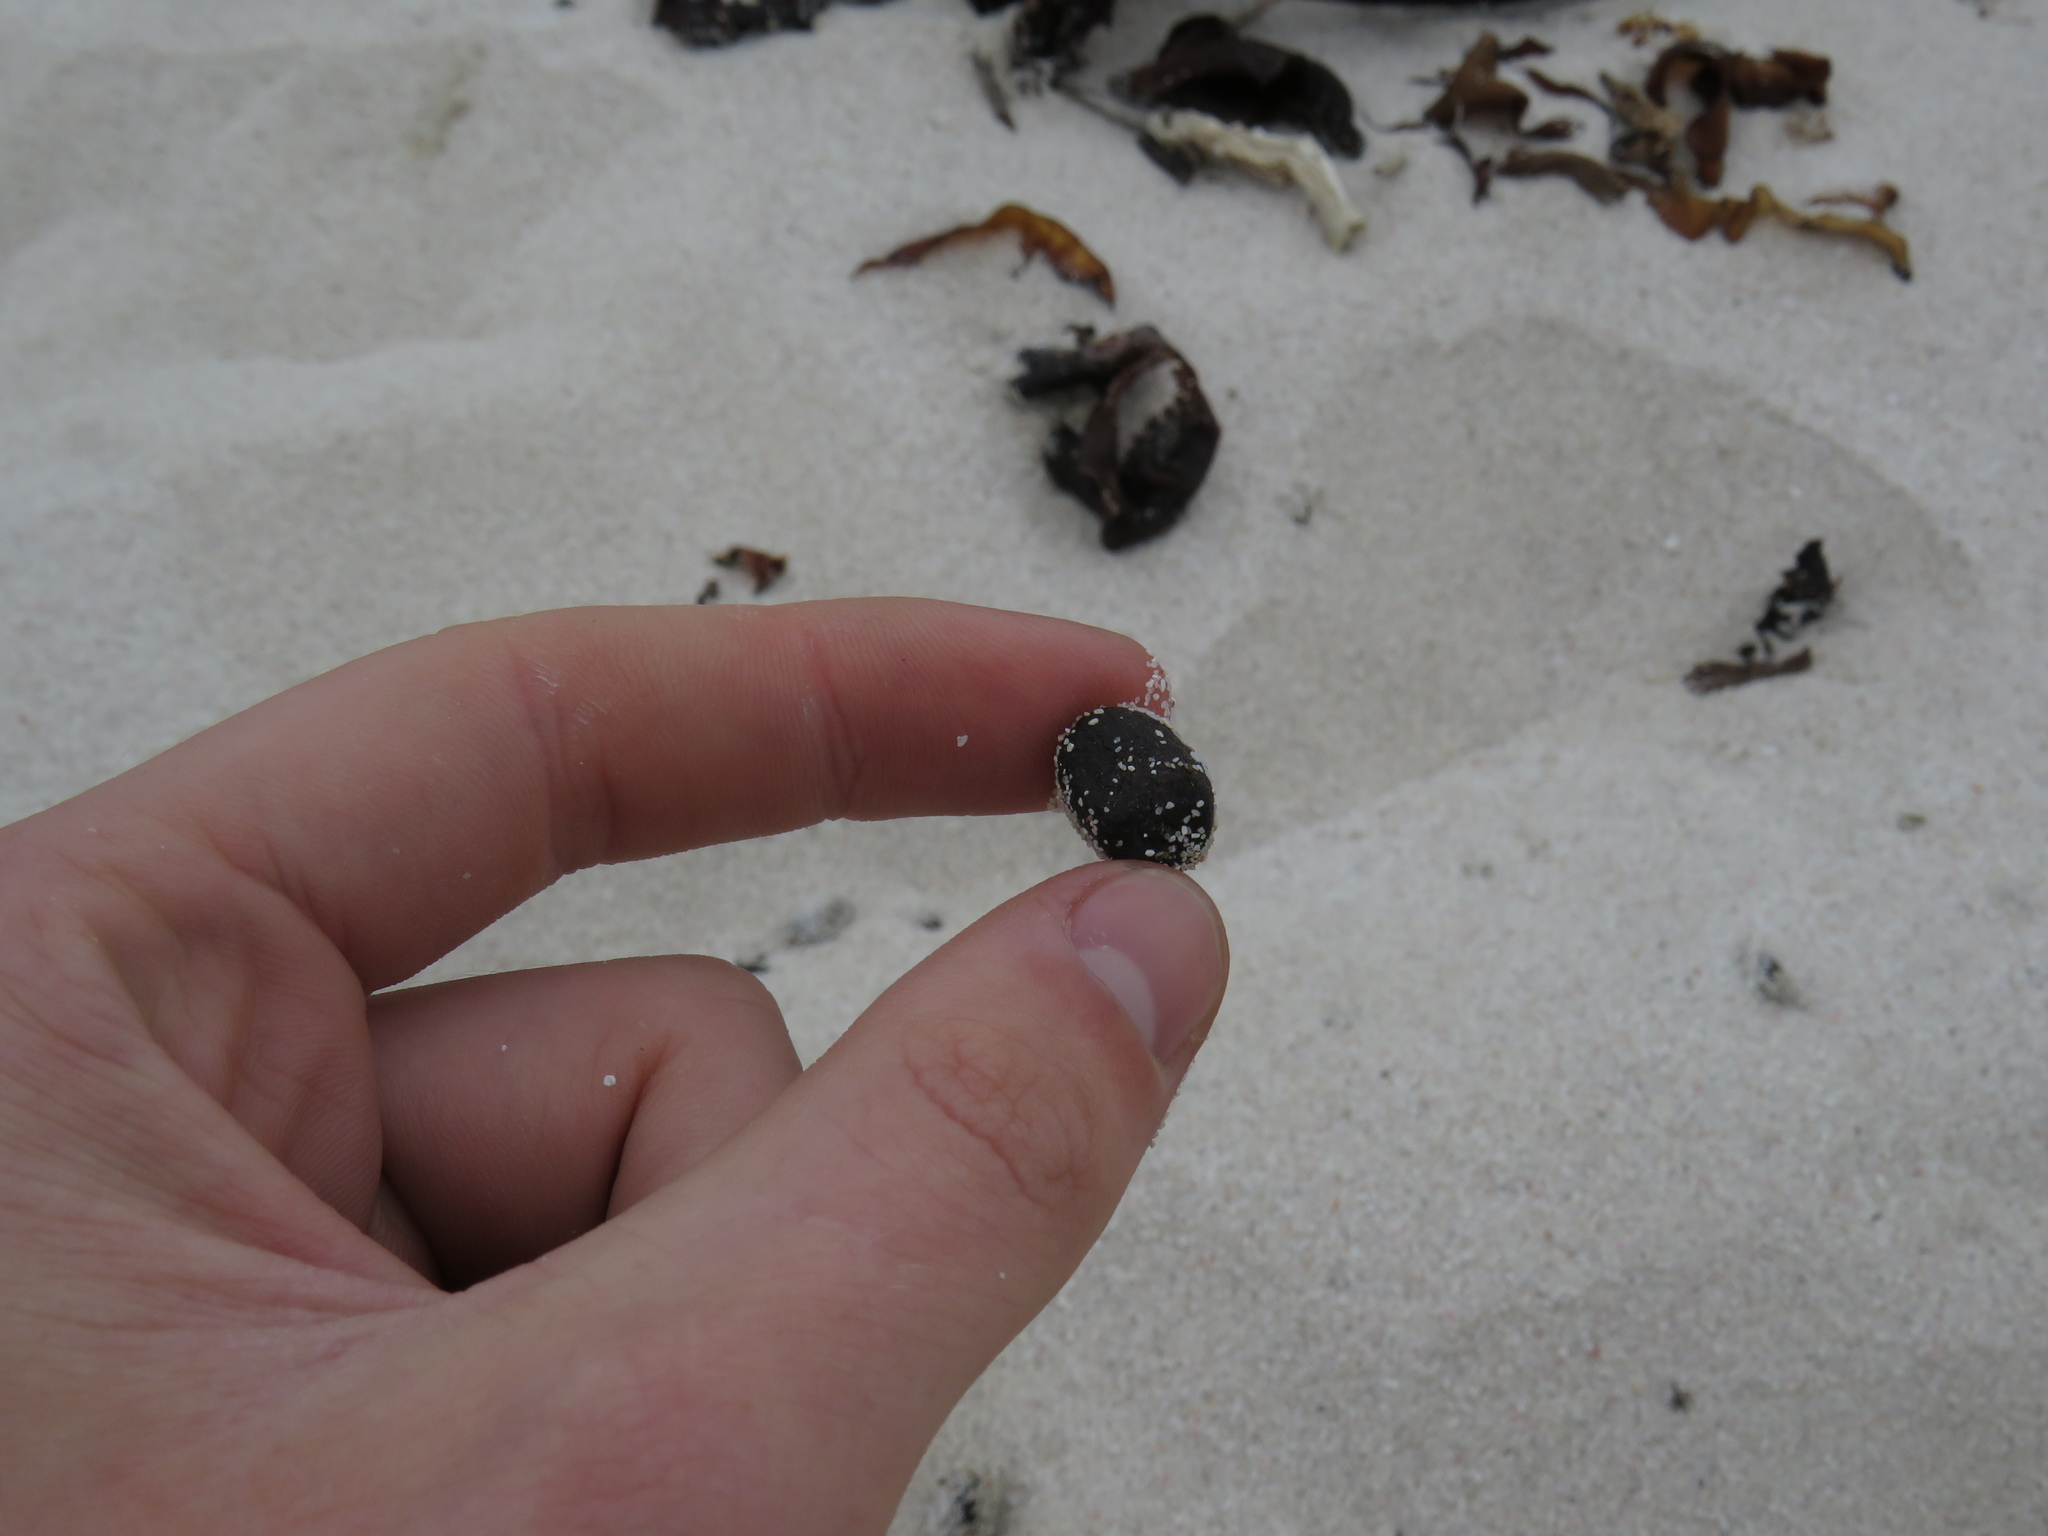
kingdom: Animalia
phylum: Chordata
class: Mammalia
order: Artiodactyla
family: Bovidae
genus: Raphicerus
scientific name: Raphicerus melanotis
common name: Cape grysbok
